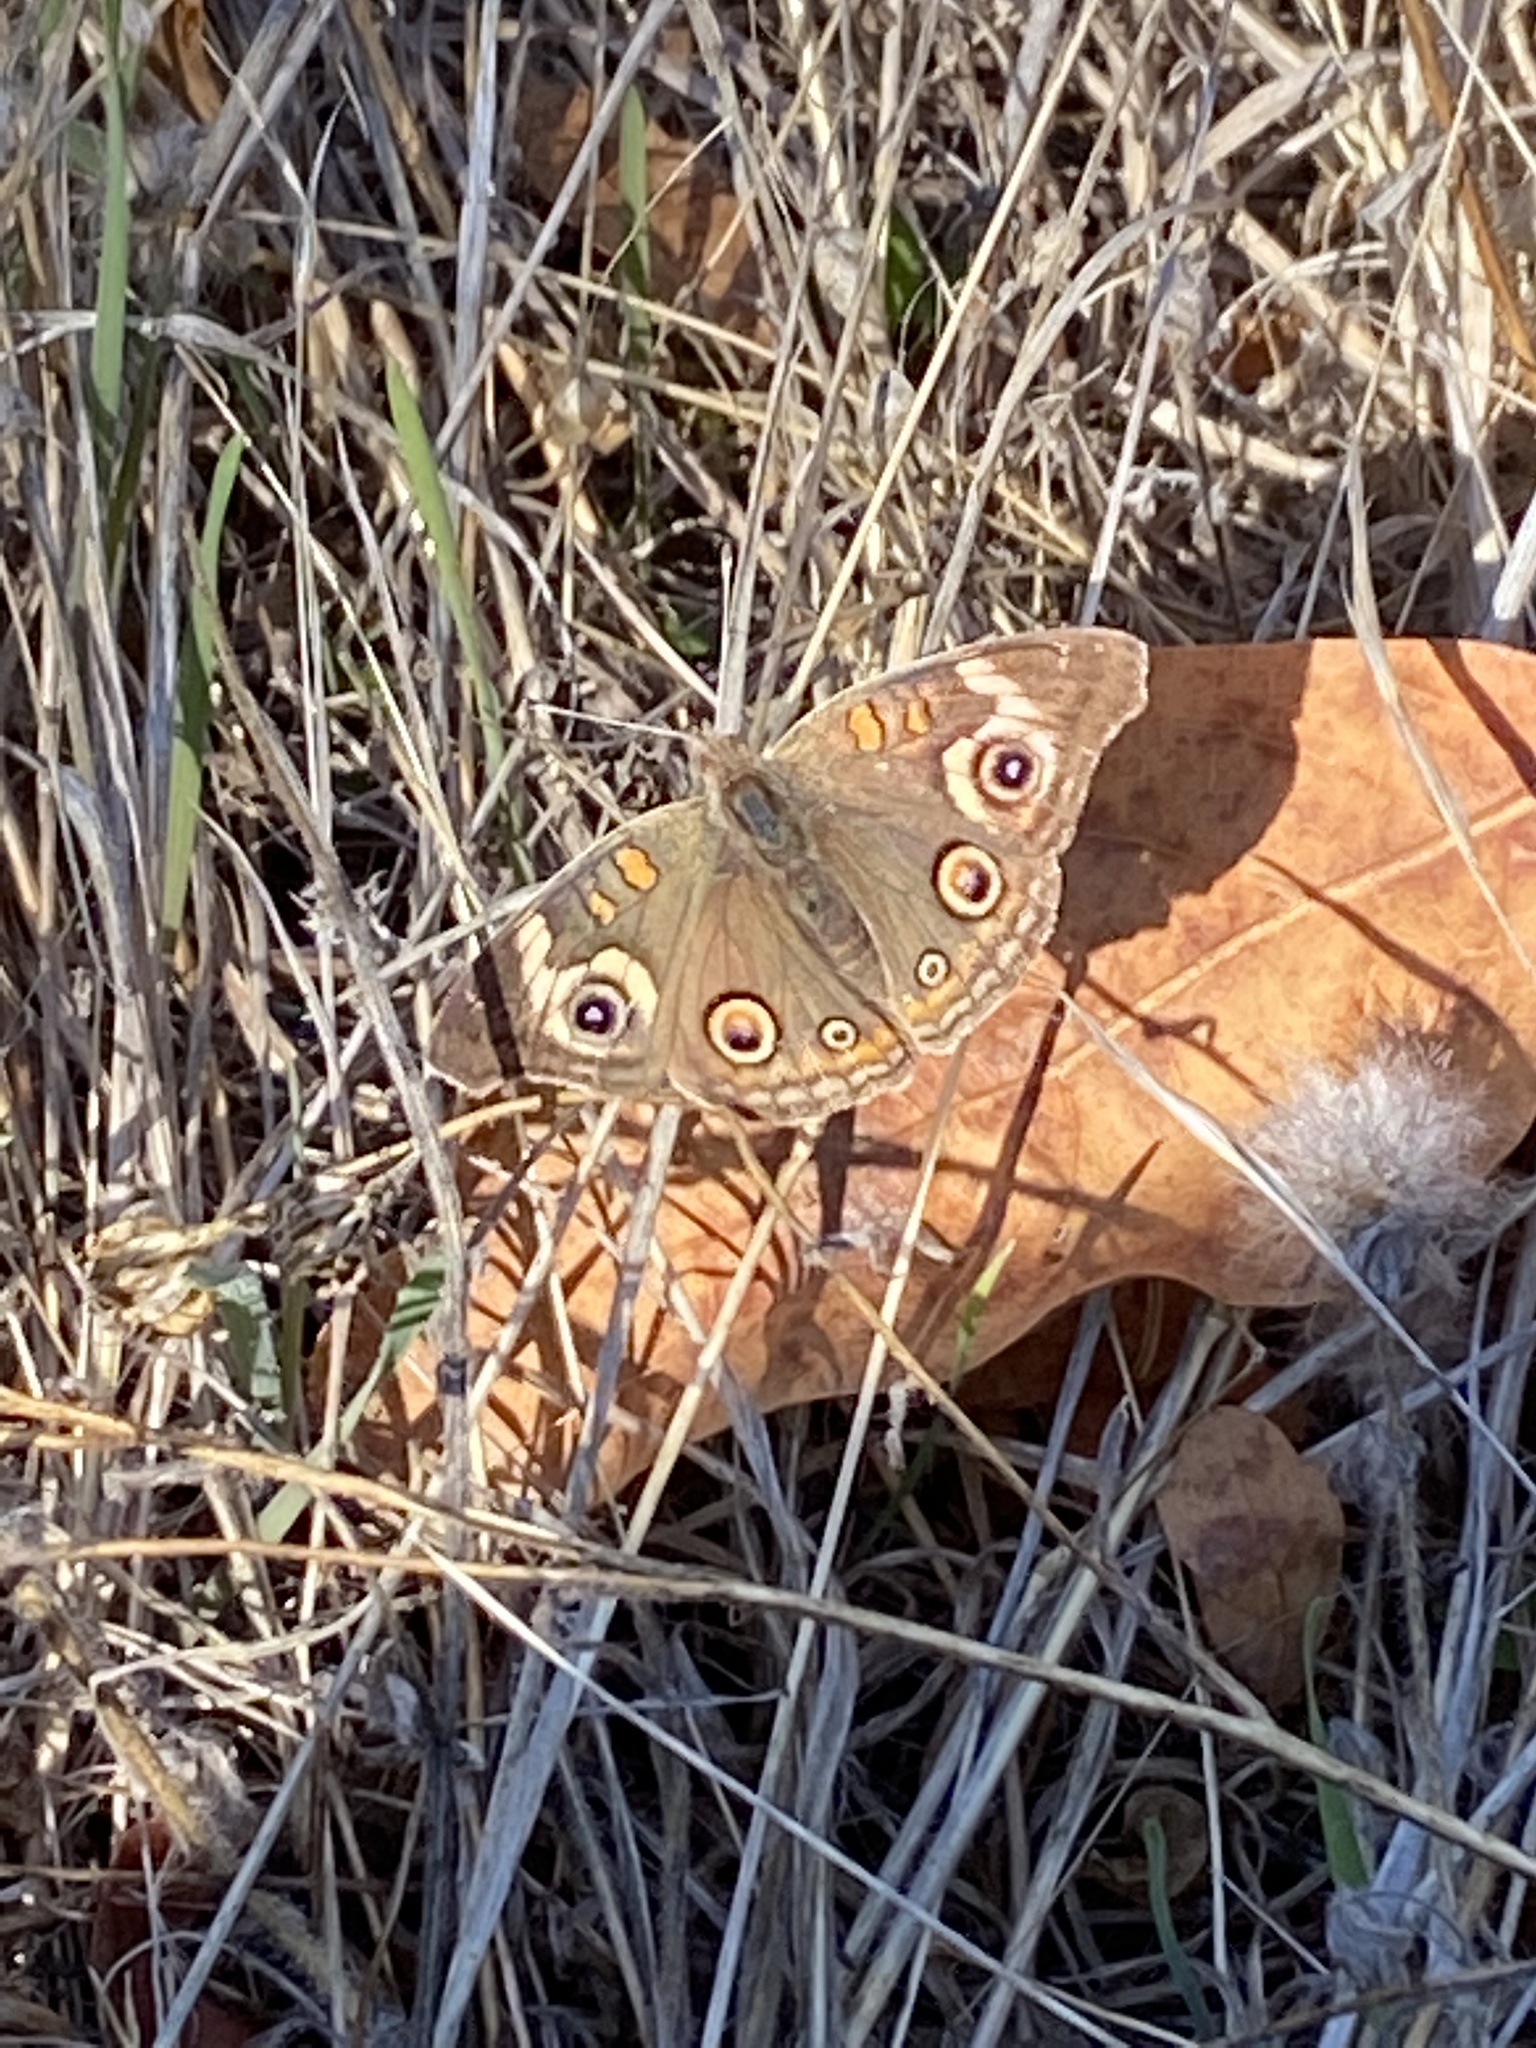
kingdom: Animalia
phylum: Arthropoda
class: Insecta
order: Lepidoptera
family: Nymphalidae
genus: Junonia
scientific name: Junonia grisea
